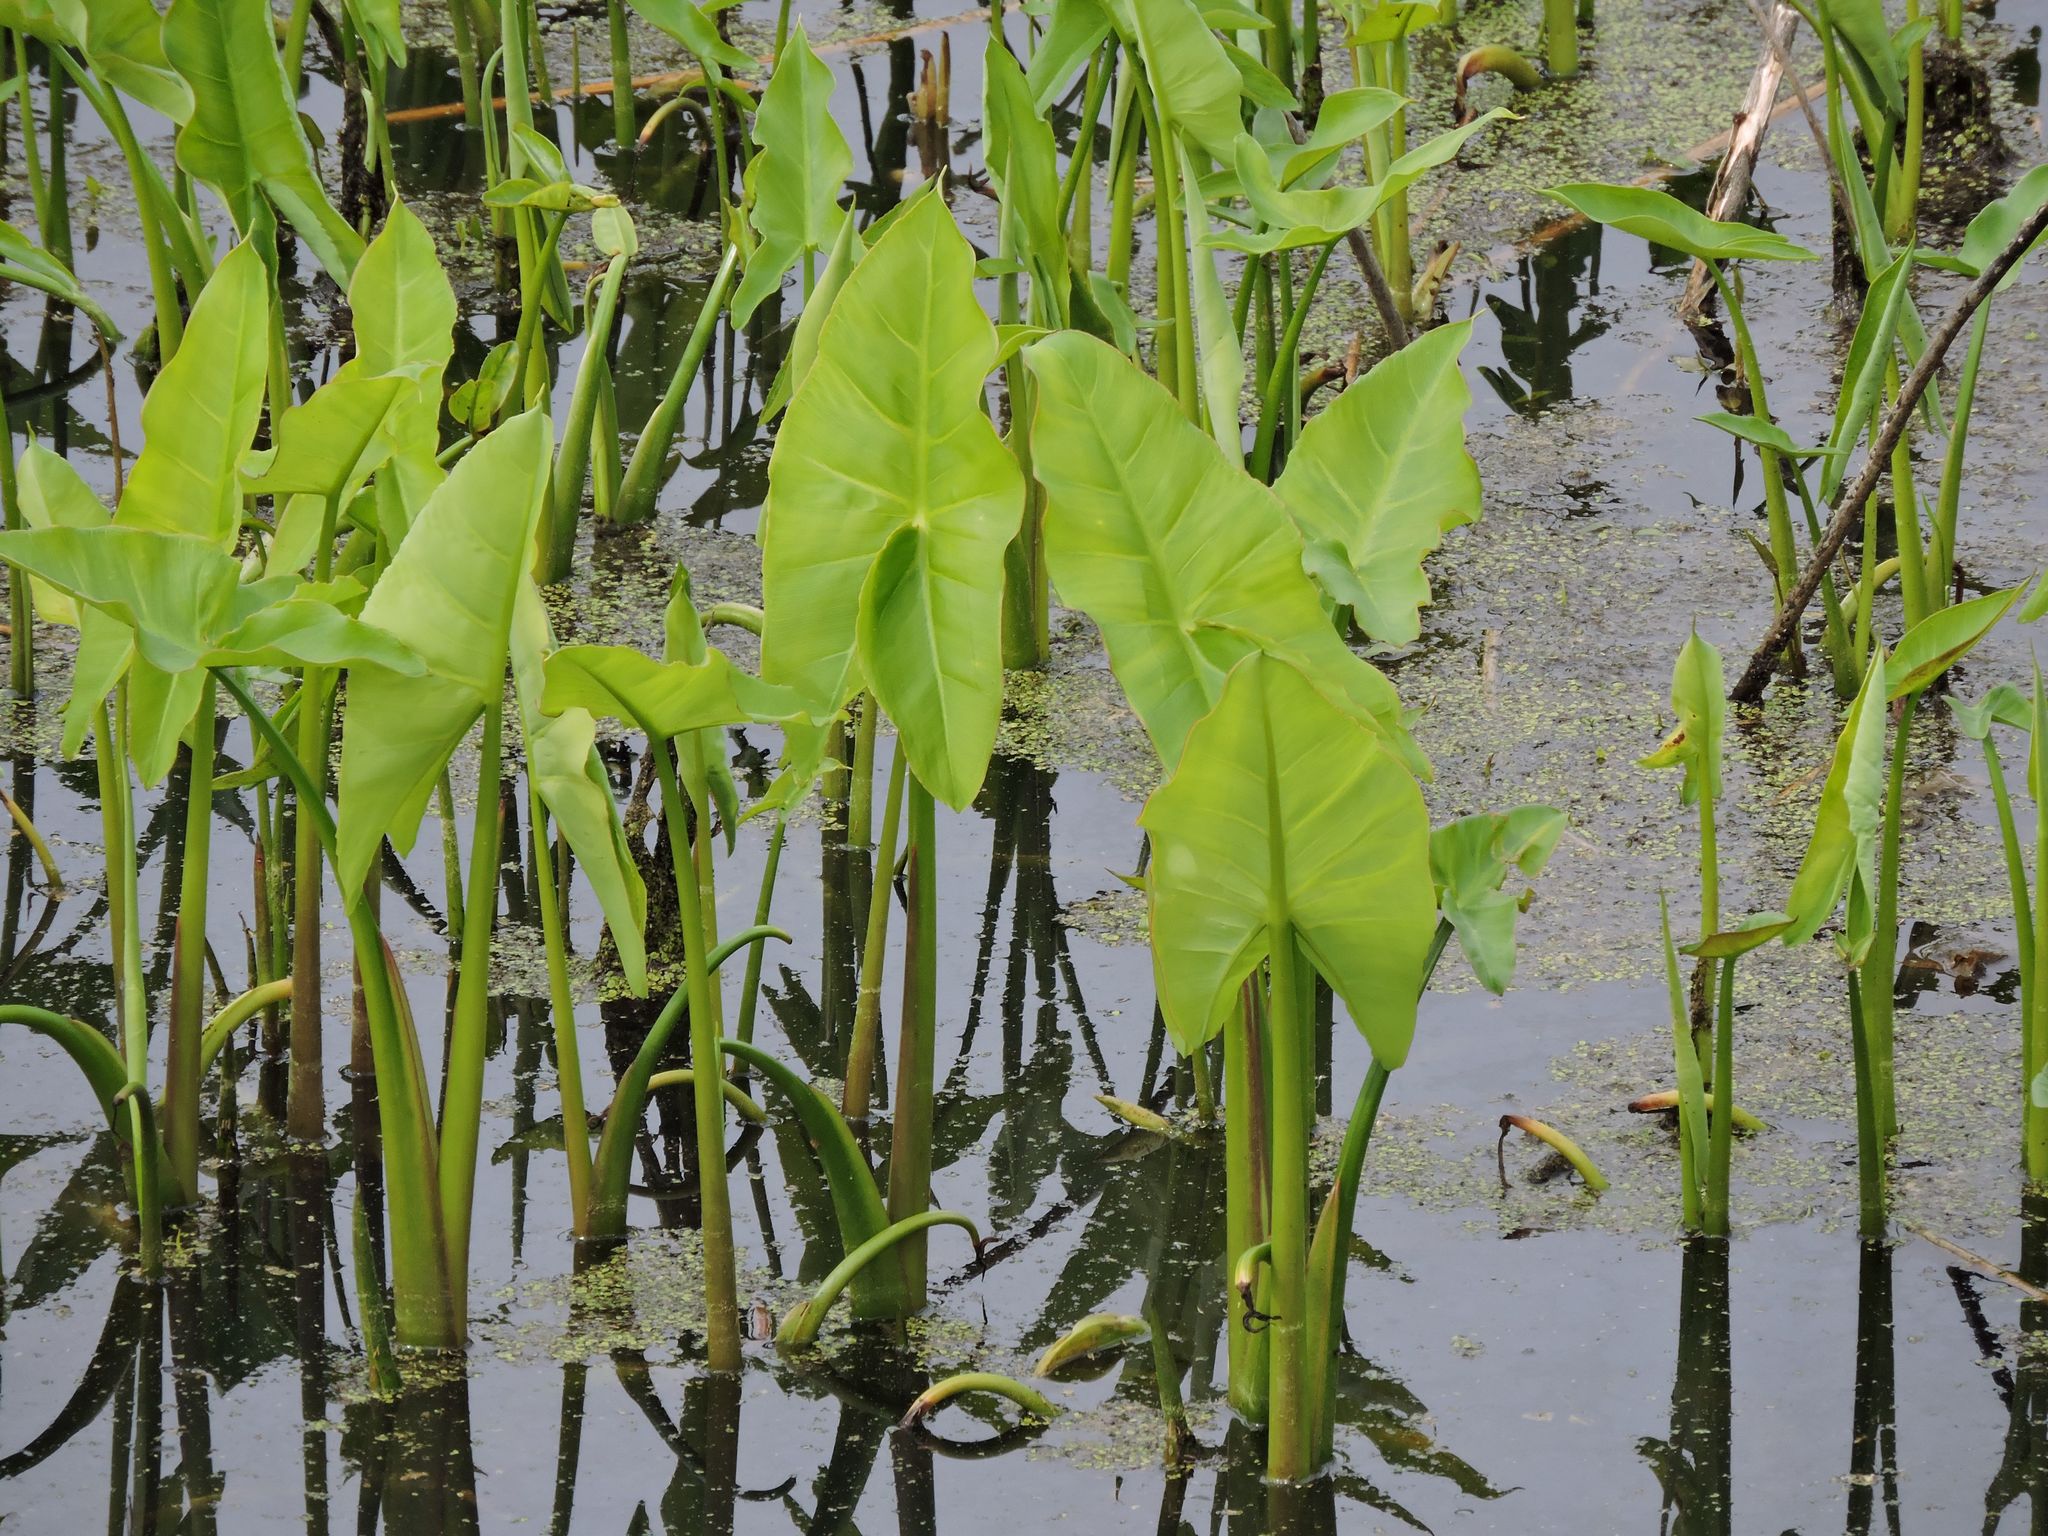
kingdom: Plantae
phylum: Tracheophyta
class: Liliopsida
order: Alismatales
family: Araceae
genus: Peltandra
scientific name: Peltandra virginica
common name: Arrow arum
